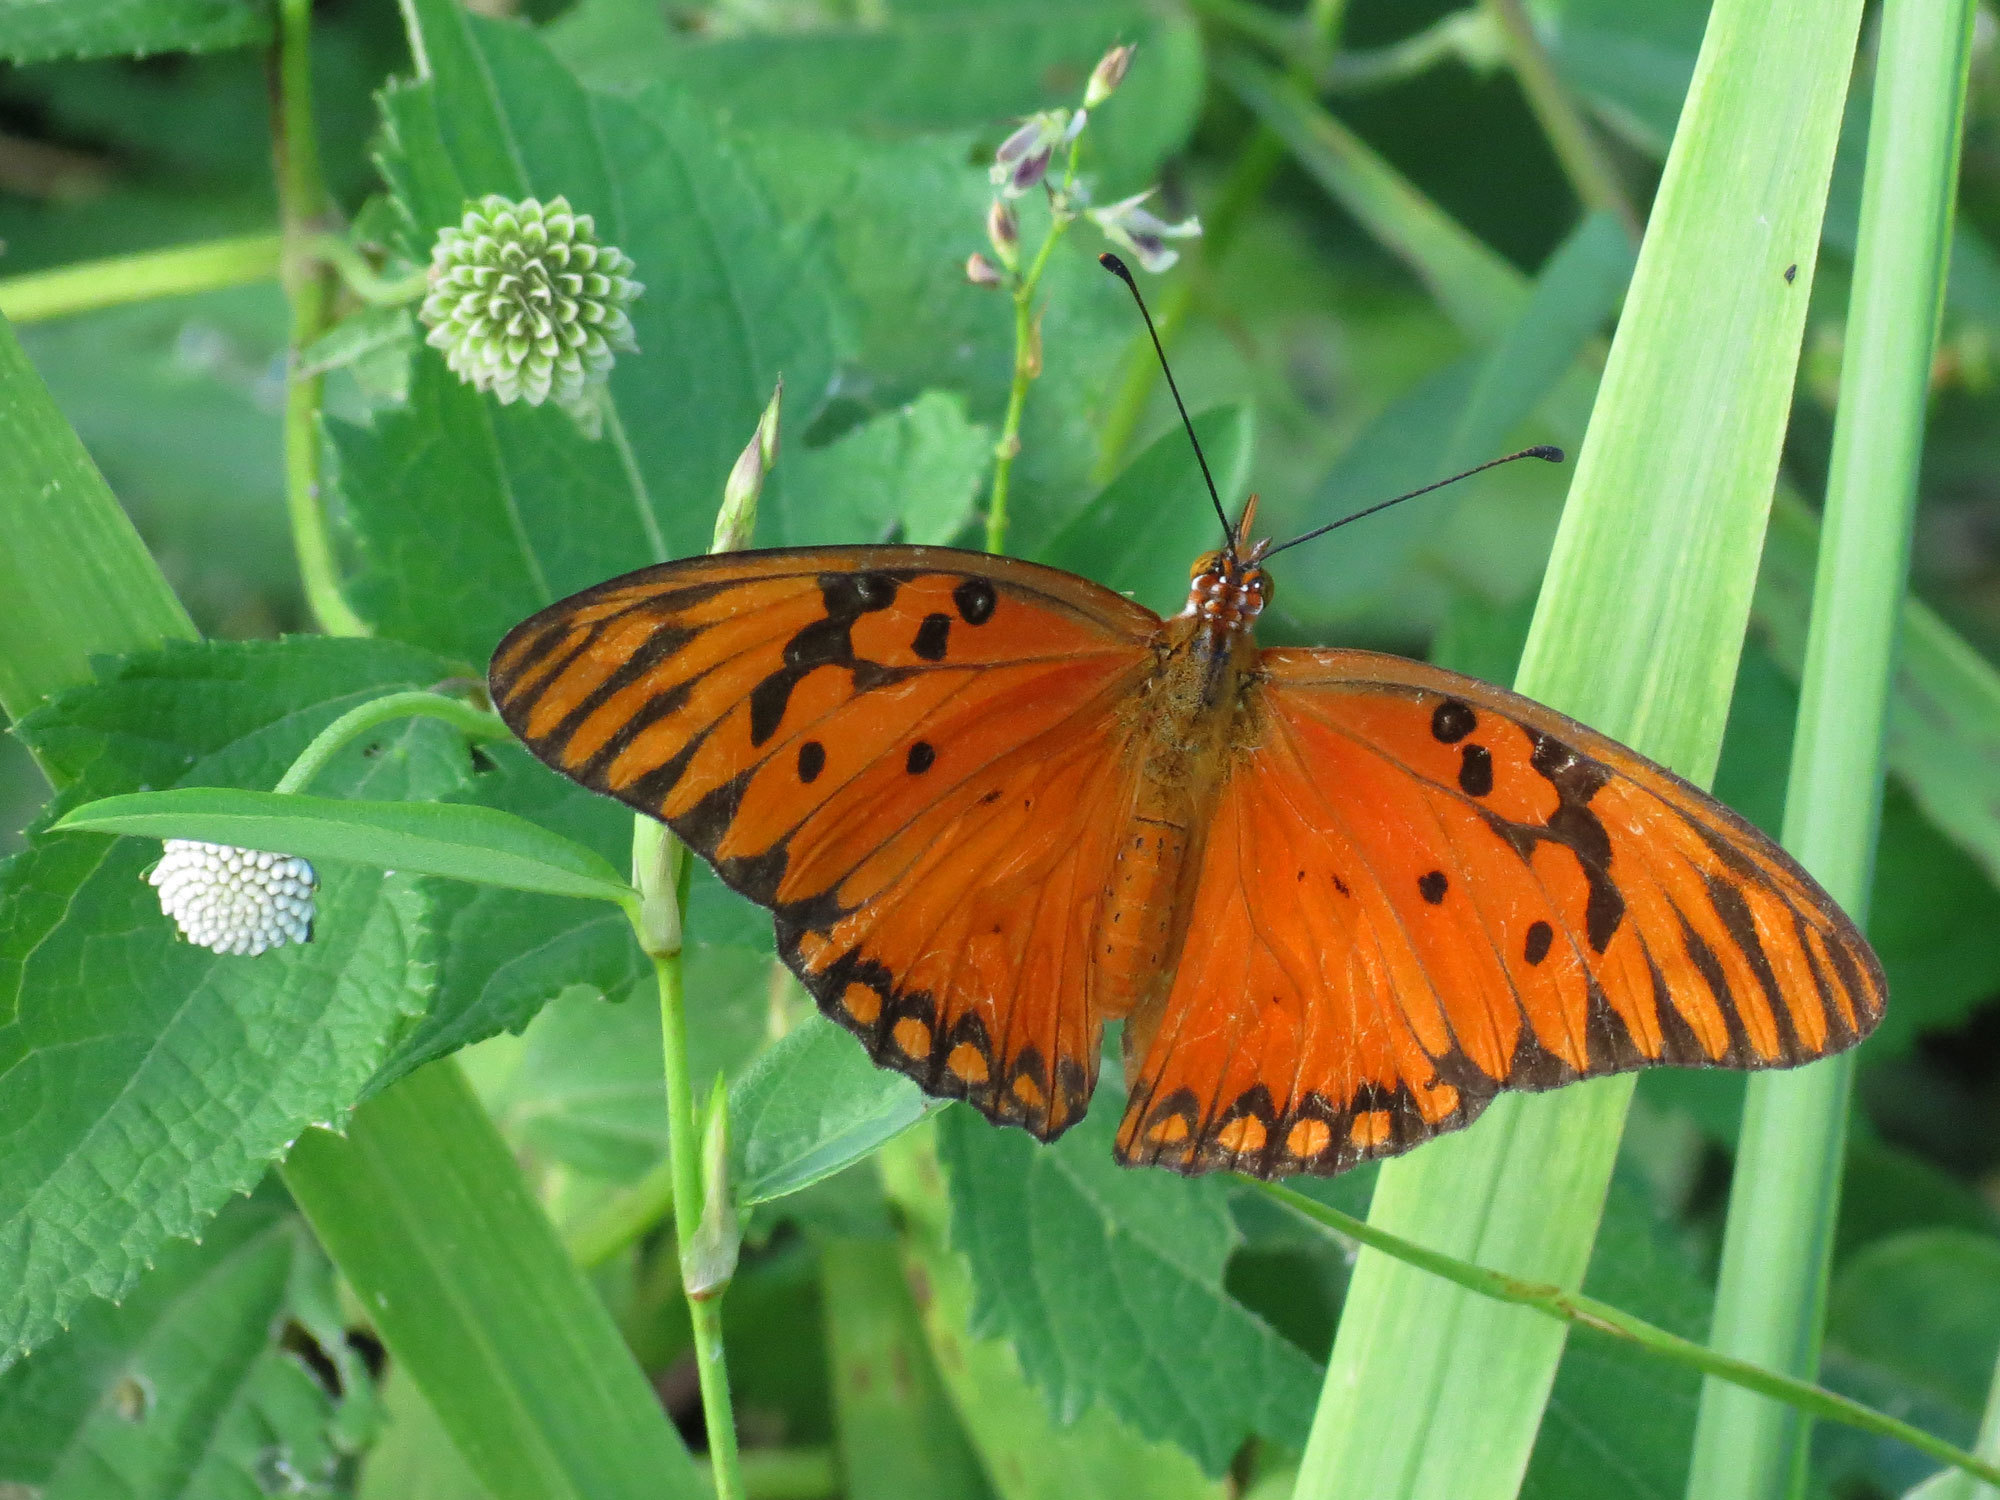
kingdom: Animalia
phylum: Arthropoda
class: Insecta
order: Lepidoptera
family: Nymphalidae
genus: Dione
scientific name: Dione vanillae
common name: Gulf fritillary
